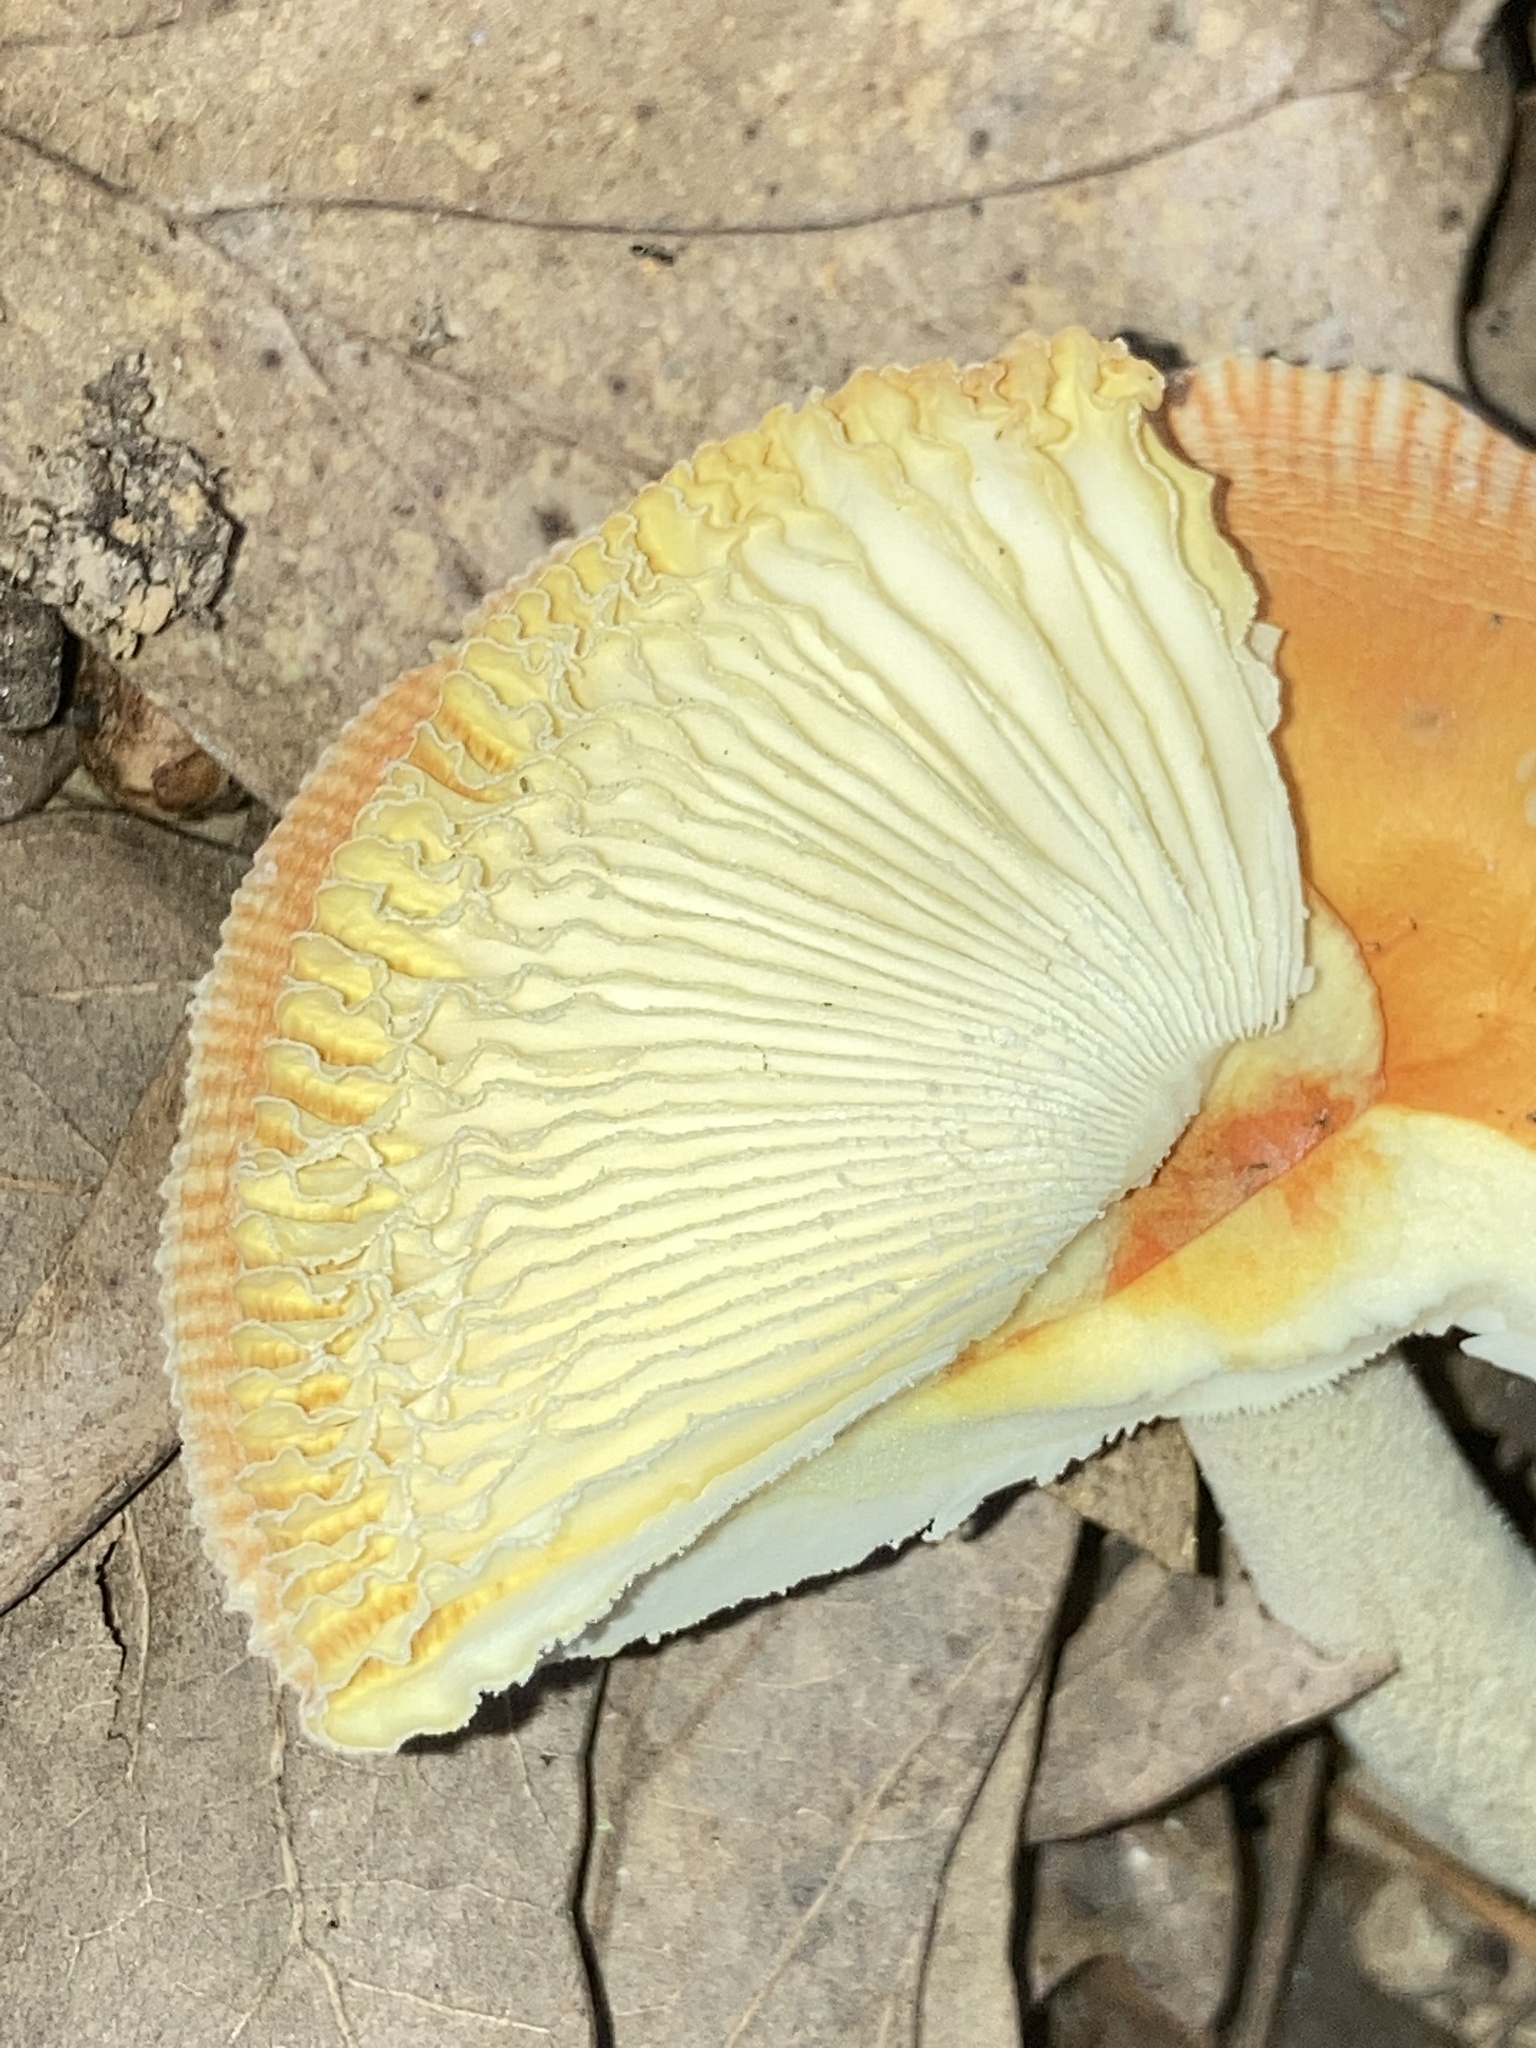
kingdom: Fungi
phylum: Basidiomycota
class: Agaricomycetes
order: Agaricales
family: Amanitaceae
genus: Amanita
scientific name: Amanita parcivolvata
